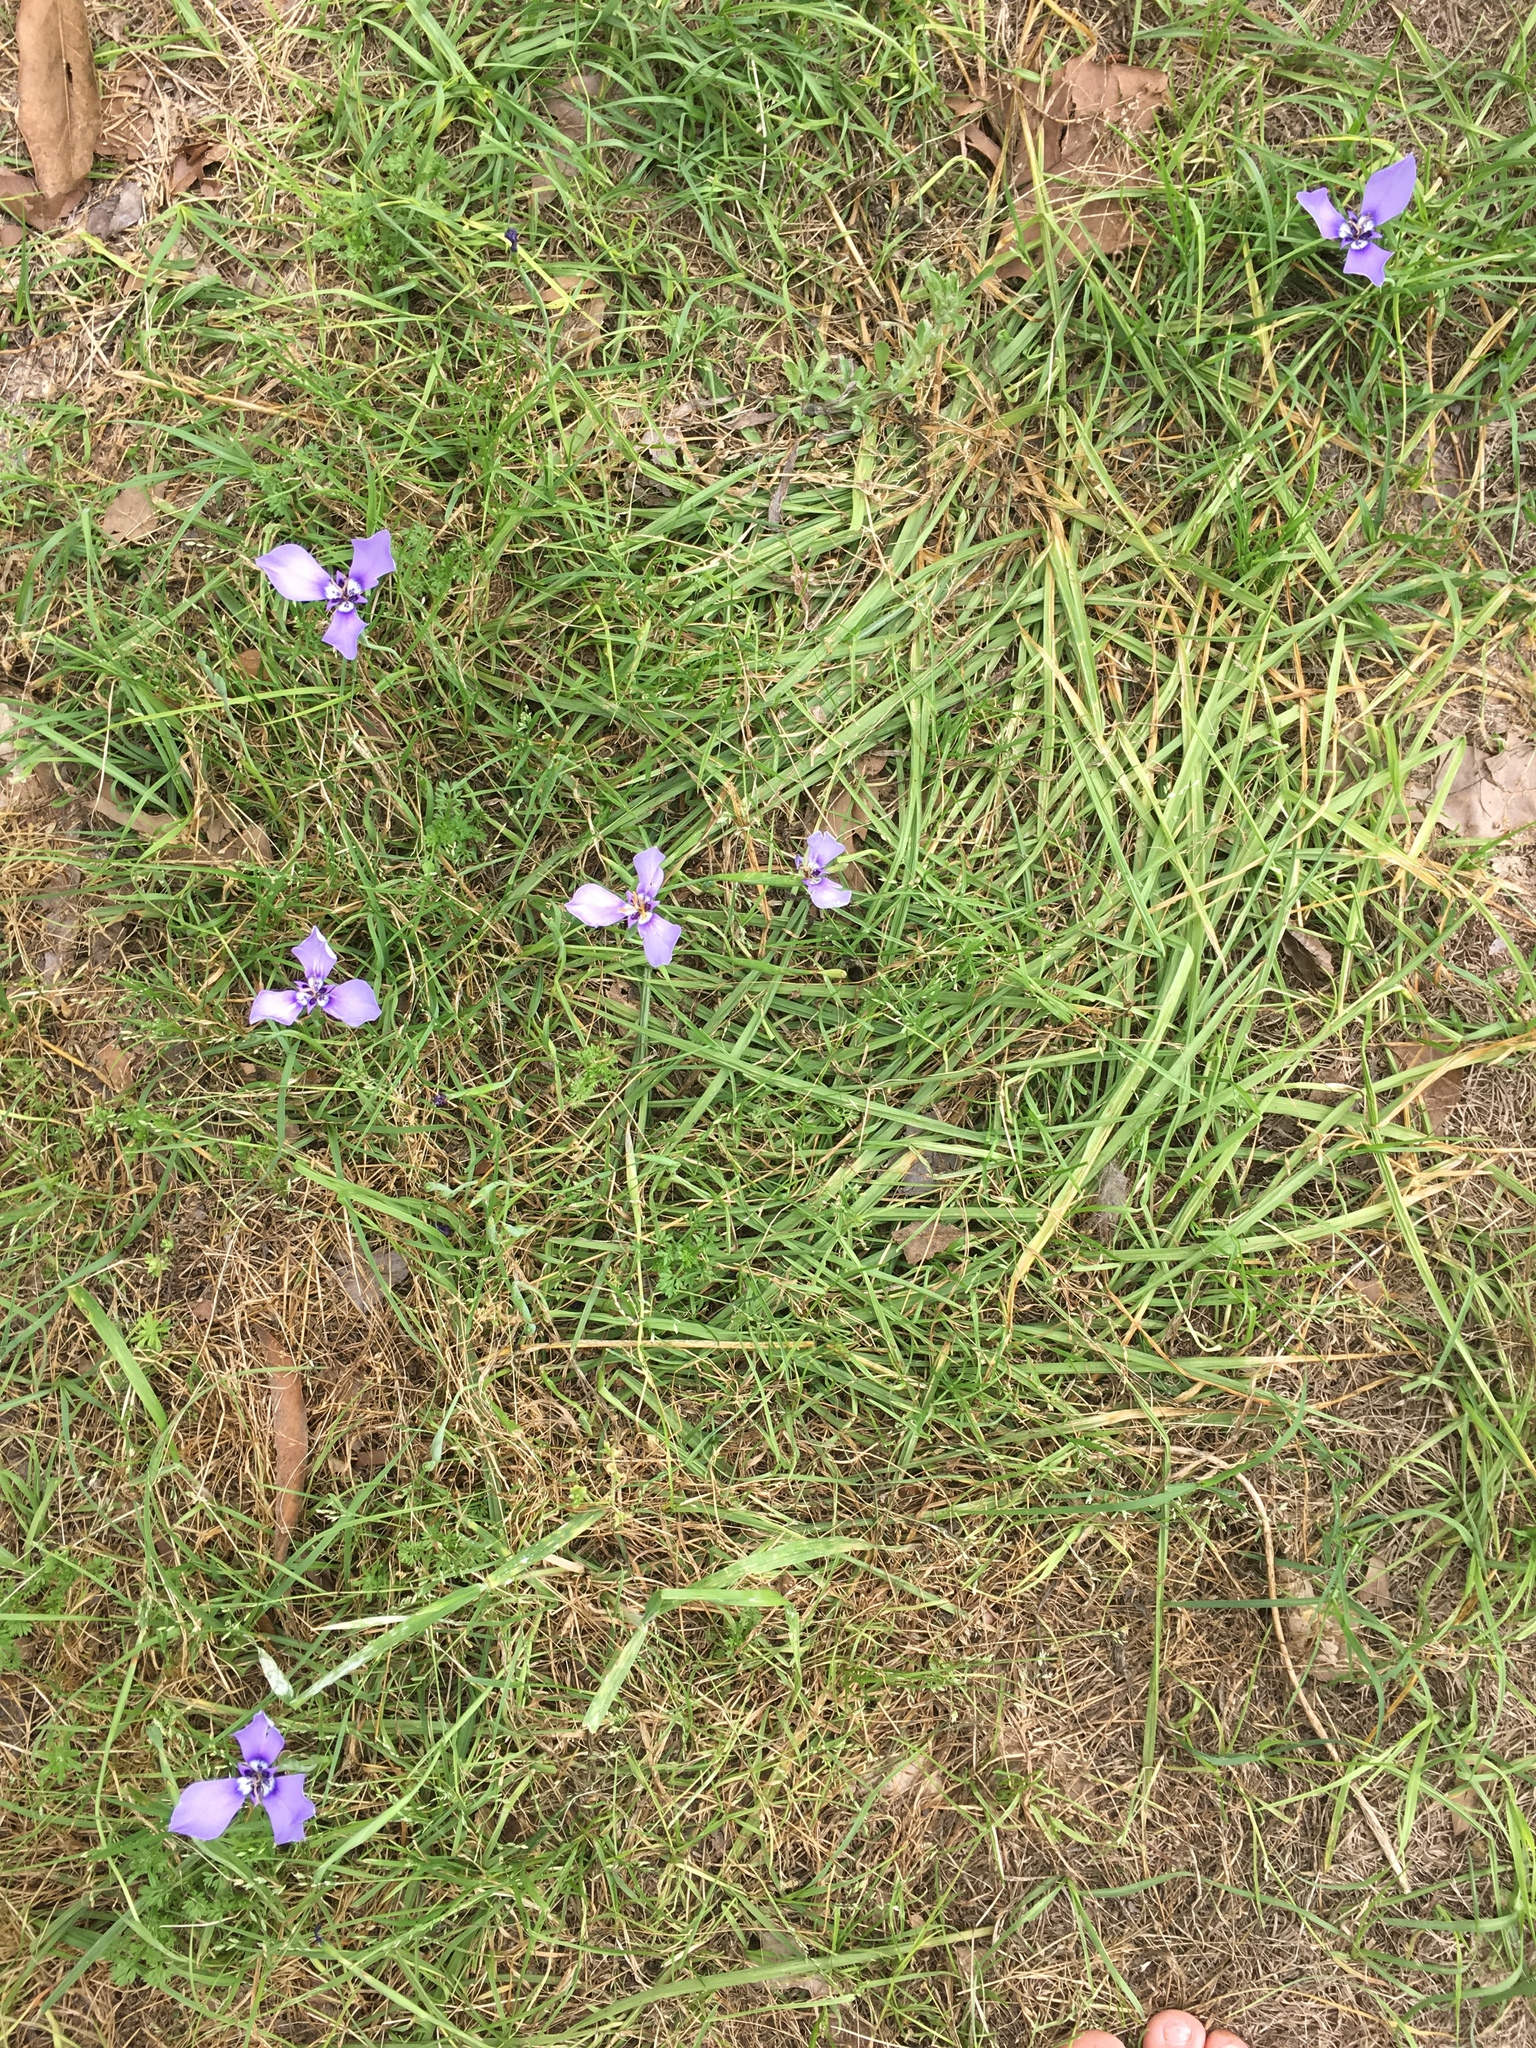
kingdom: Plantae
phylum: Tracheophyta
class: Liliopsida
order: Asparagales
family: Iridaceae
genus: Herbertia
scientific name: Herbertia lahue
